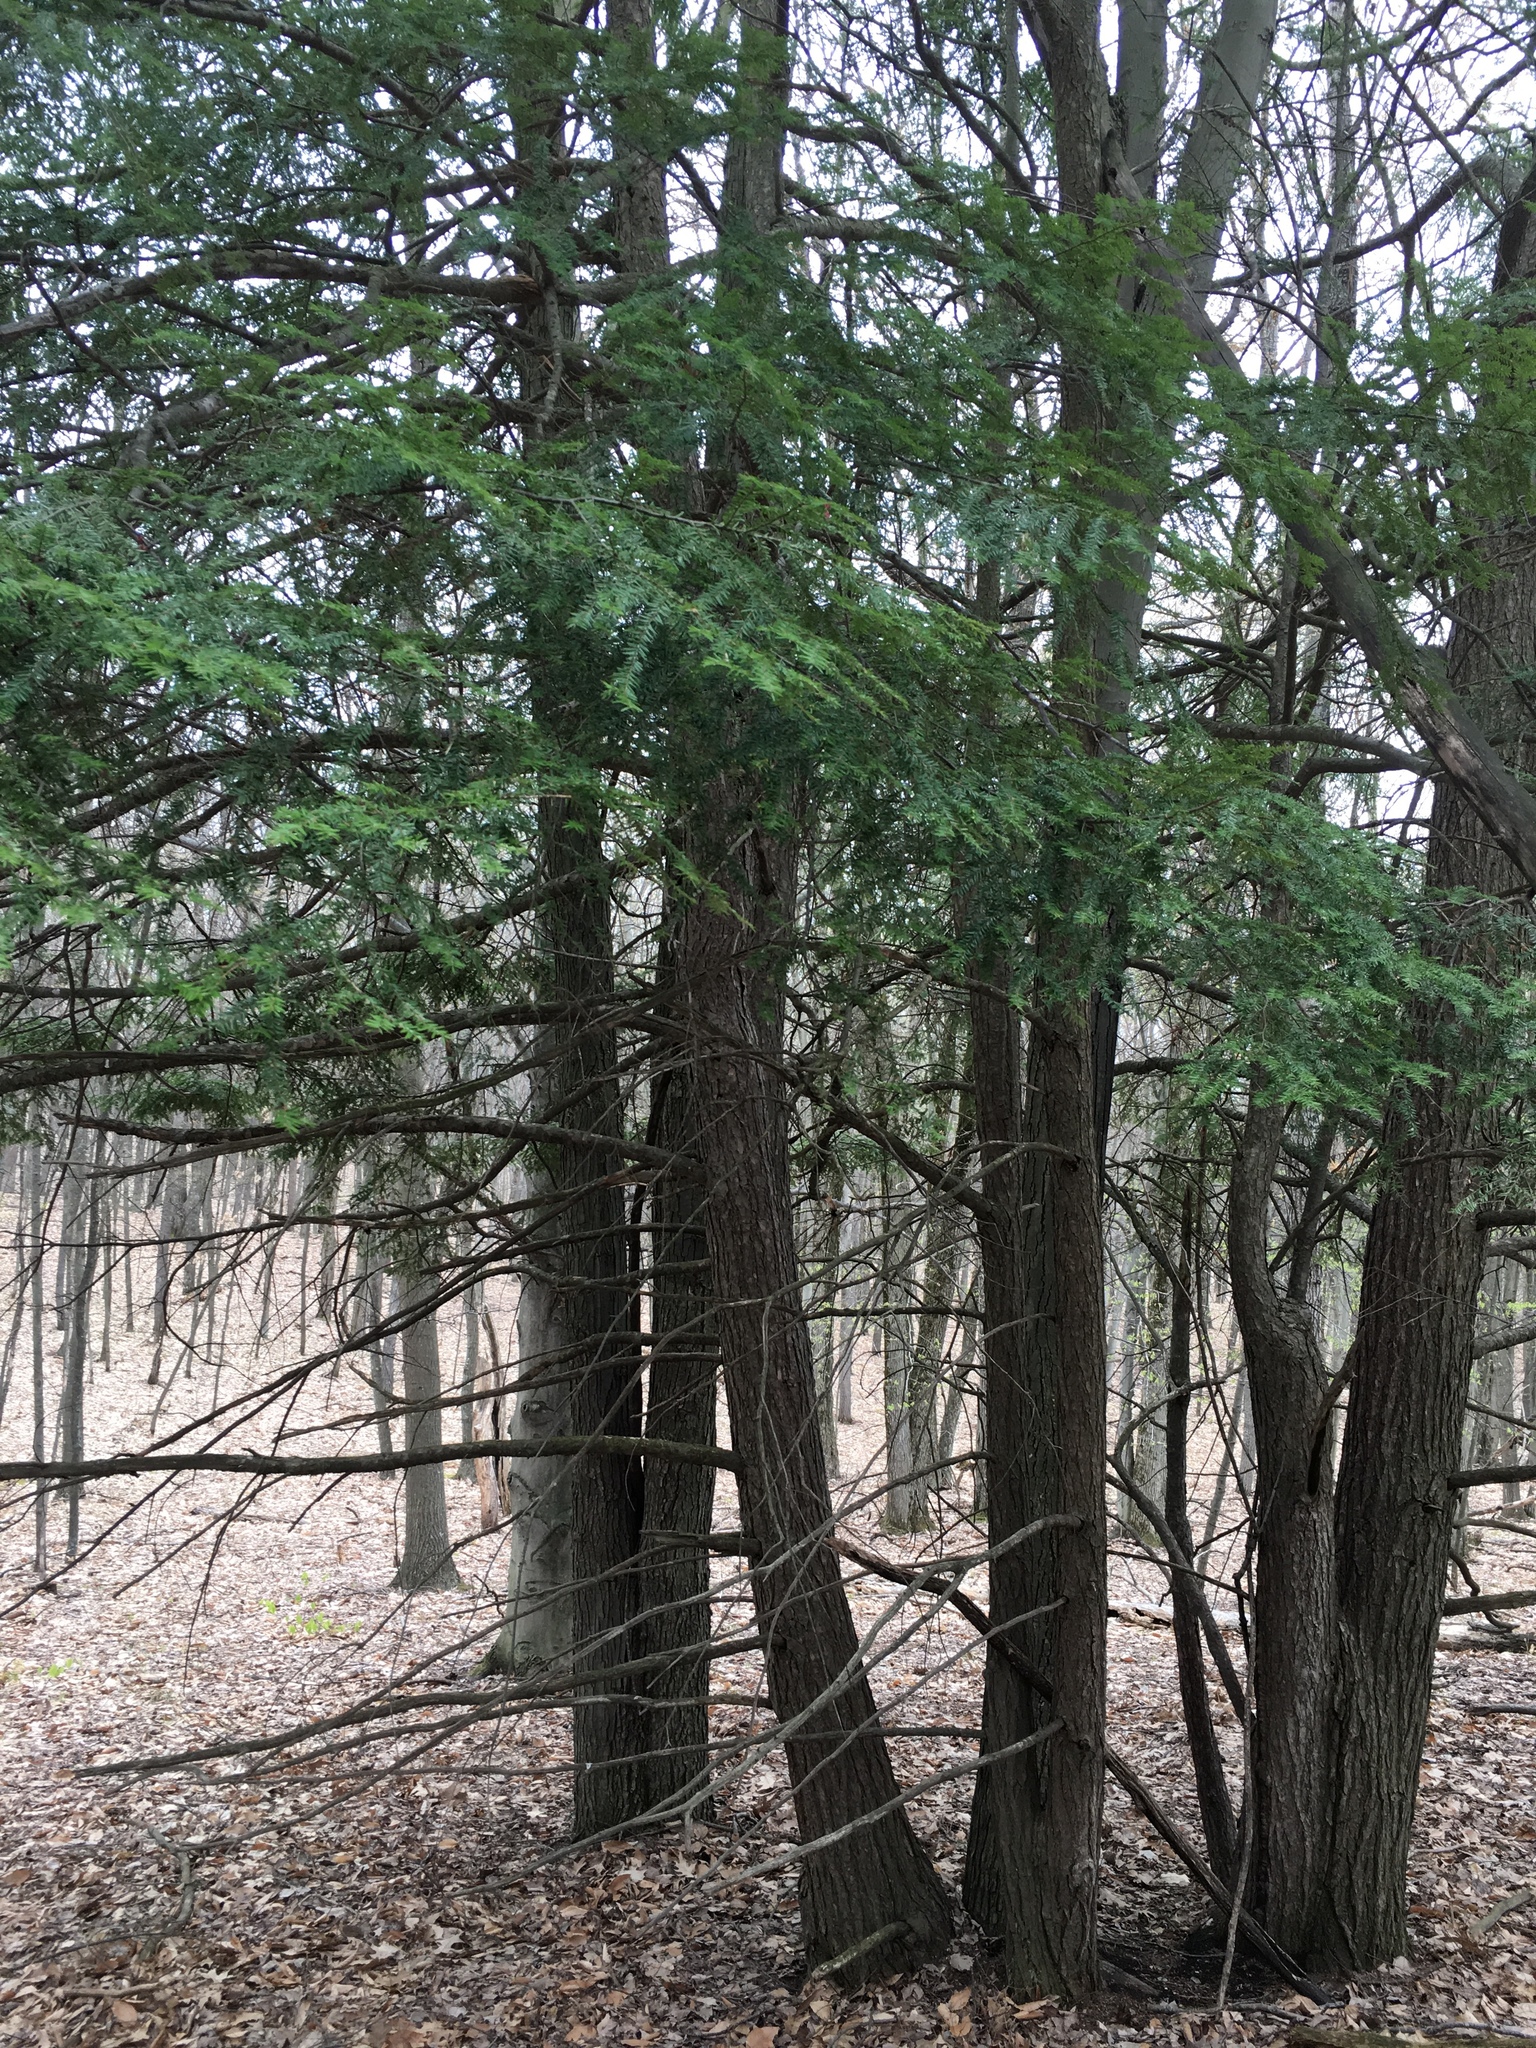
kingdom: Plantae
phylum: Tracheophyta
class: Pinopsida
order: Pinales
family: Pinaceae
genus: Tsuga
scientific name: Tsuga canadensis
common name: Eastern hemlock
